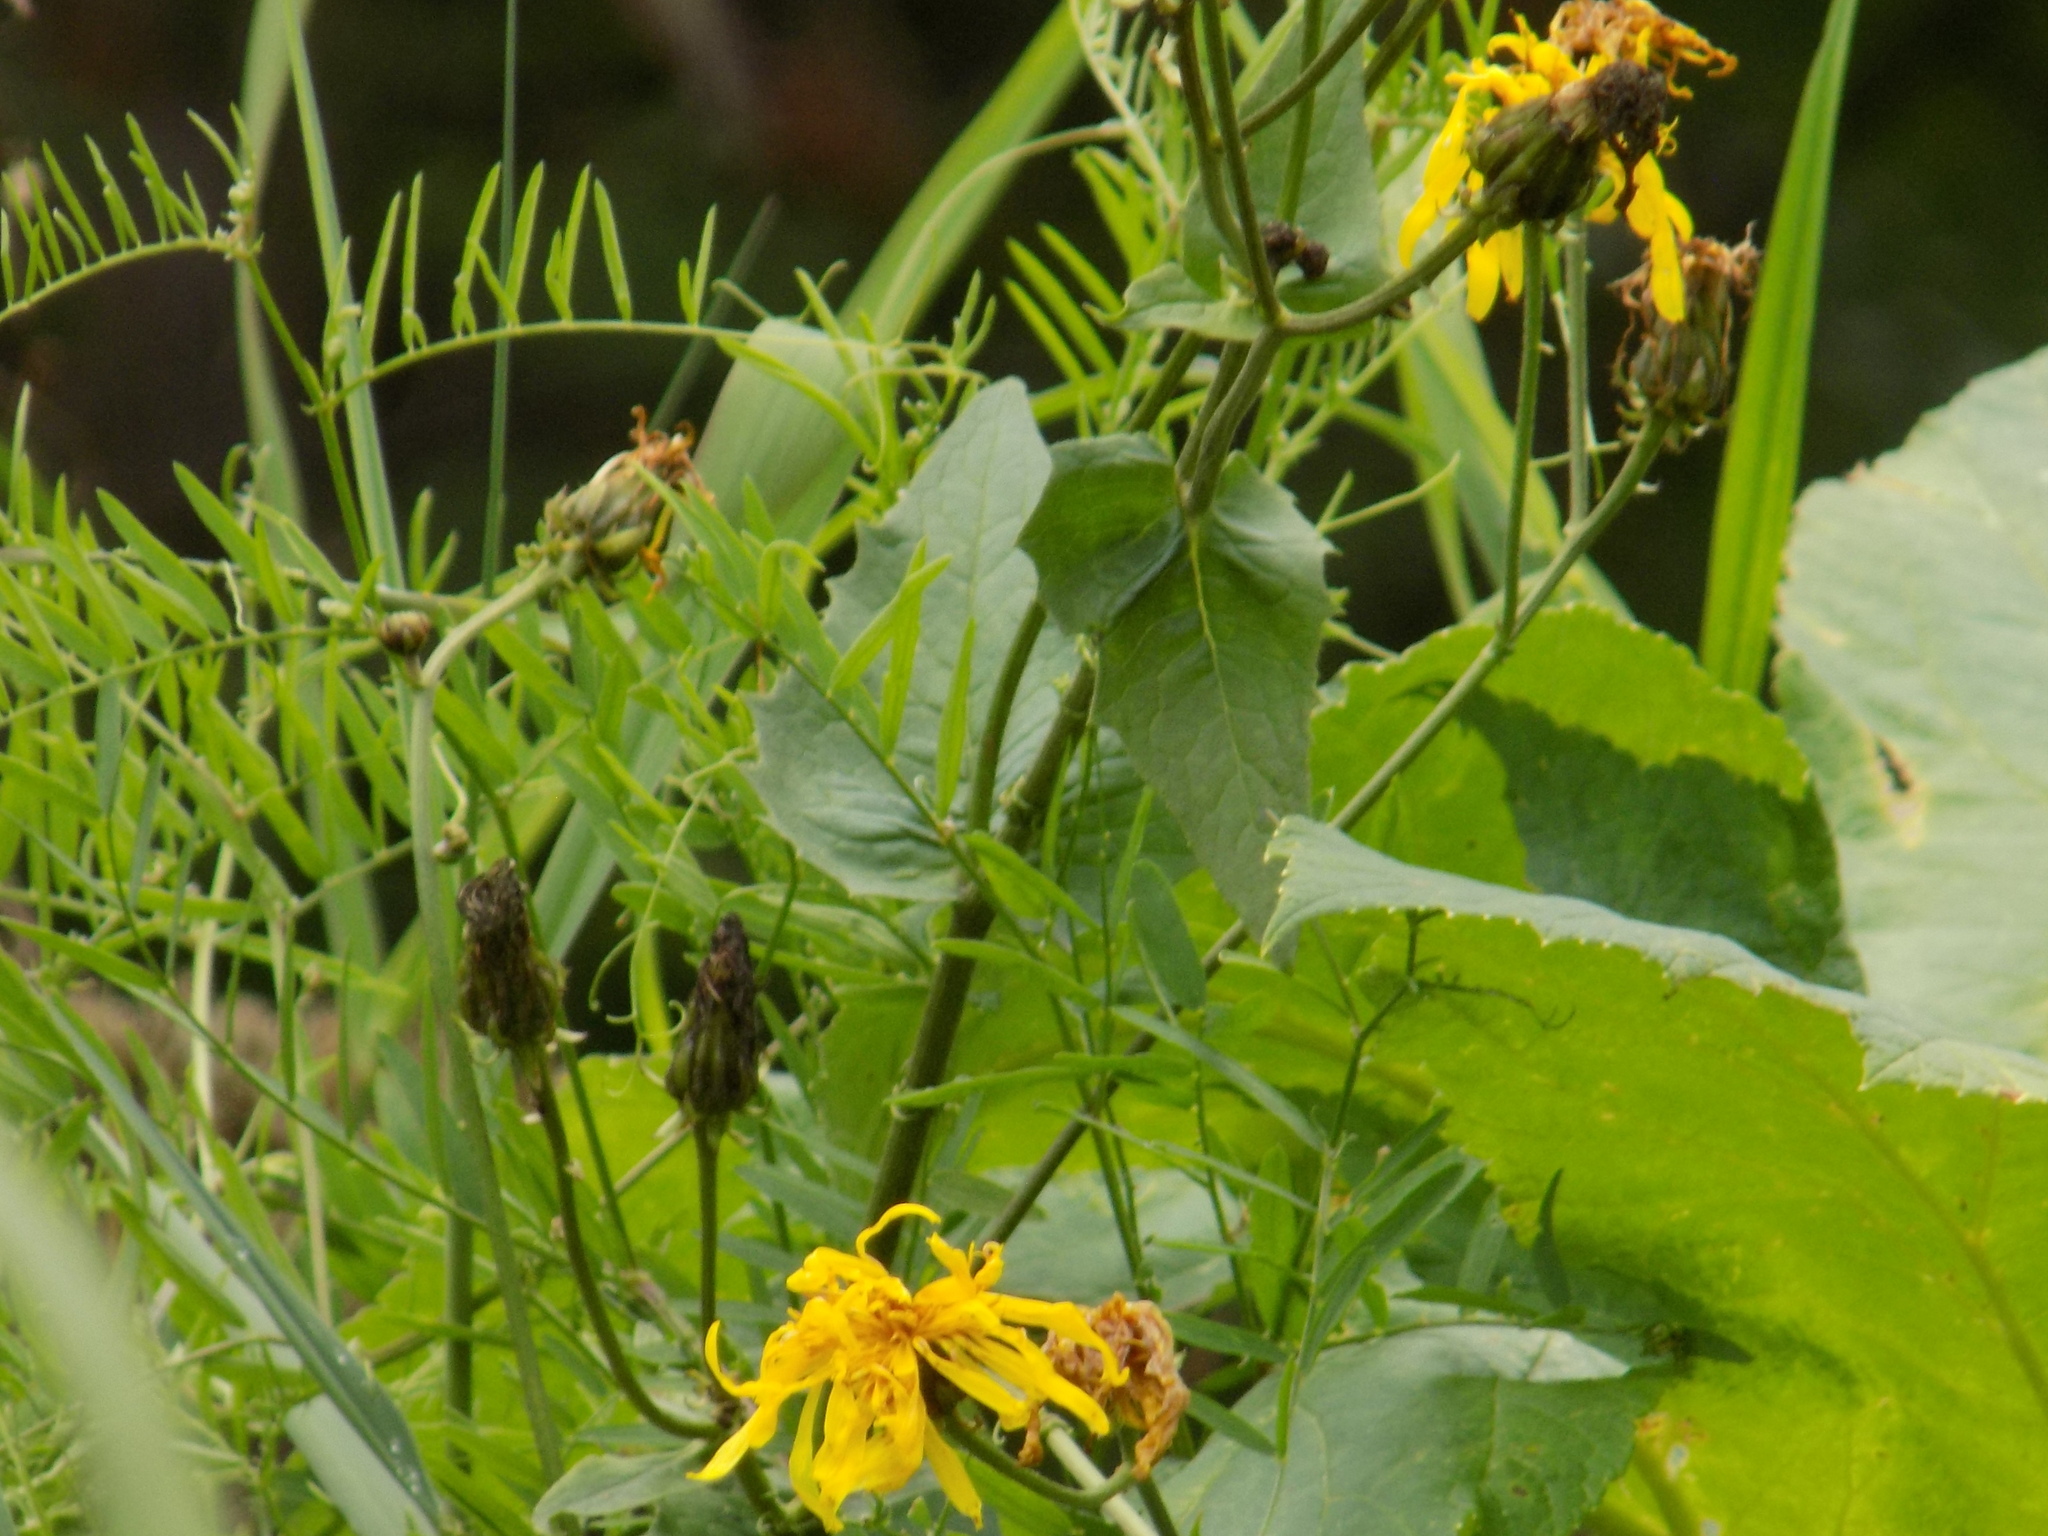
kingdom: Plantae
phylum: Tracheophyta
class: Magnoliopsida
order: Asterales
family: Asteraceae
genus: Crepis
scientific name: Crepis sibirica
